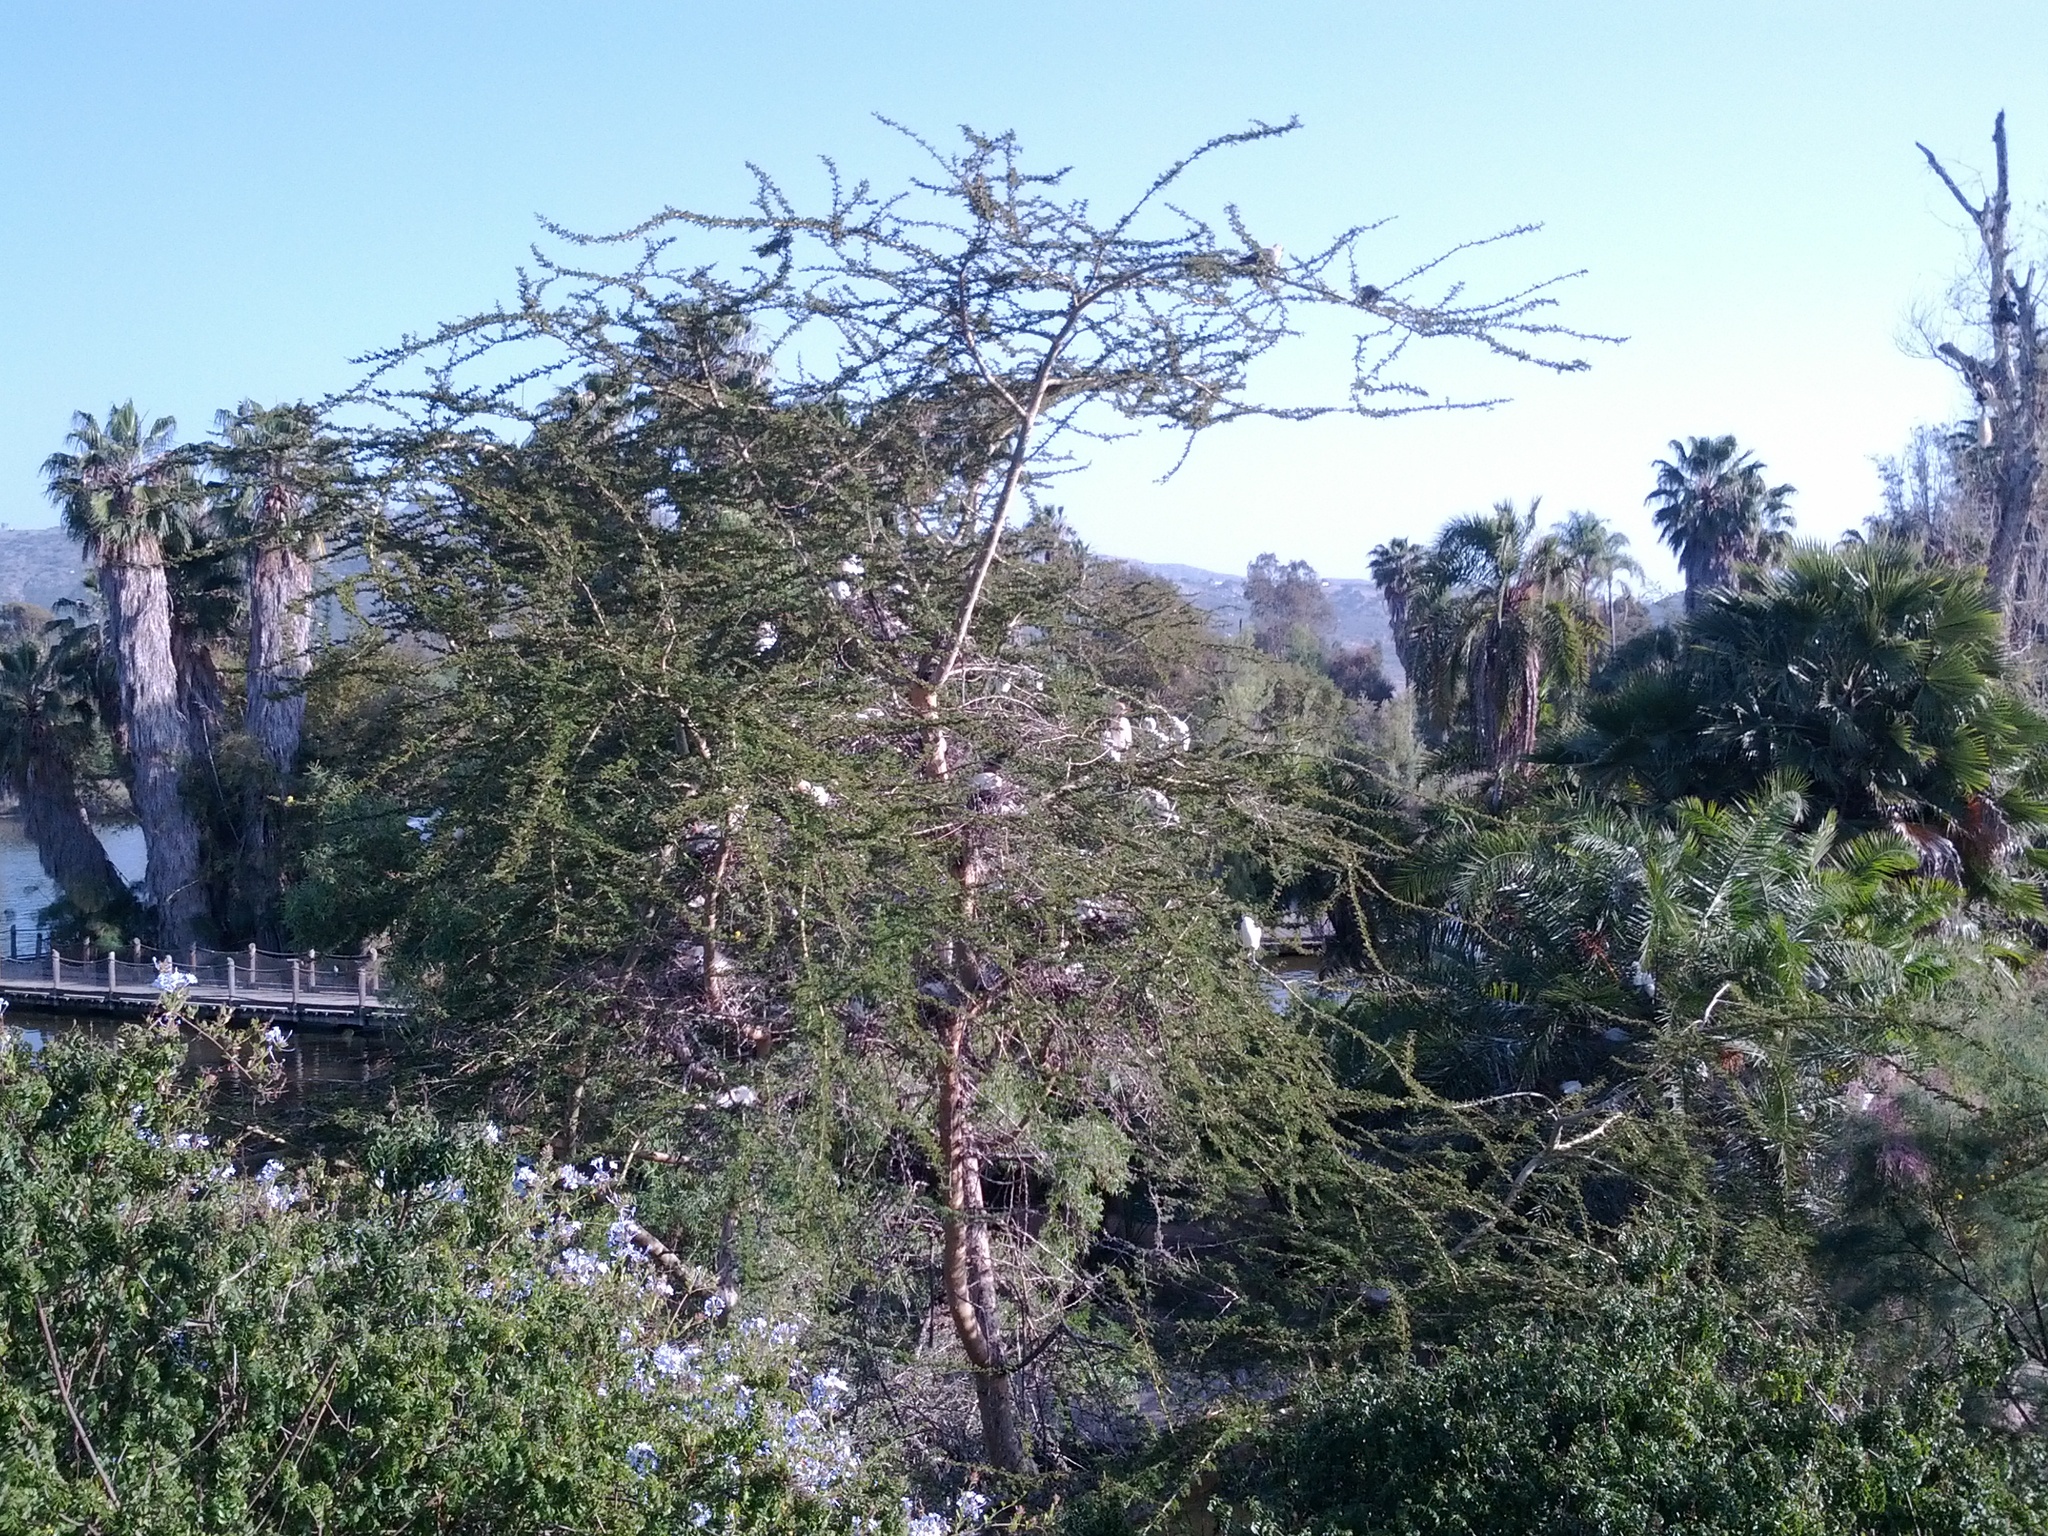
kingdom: Animalia
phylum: Chordata
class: Aves
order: Pelecaniformes
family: Ardeidae
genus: Bubulcus
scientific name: Bubulcus ibis
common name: Cattle egret
